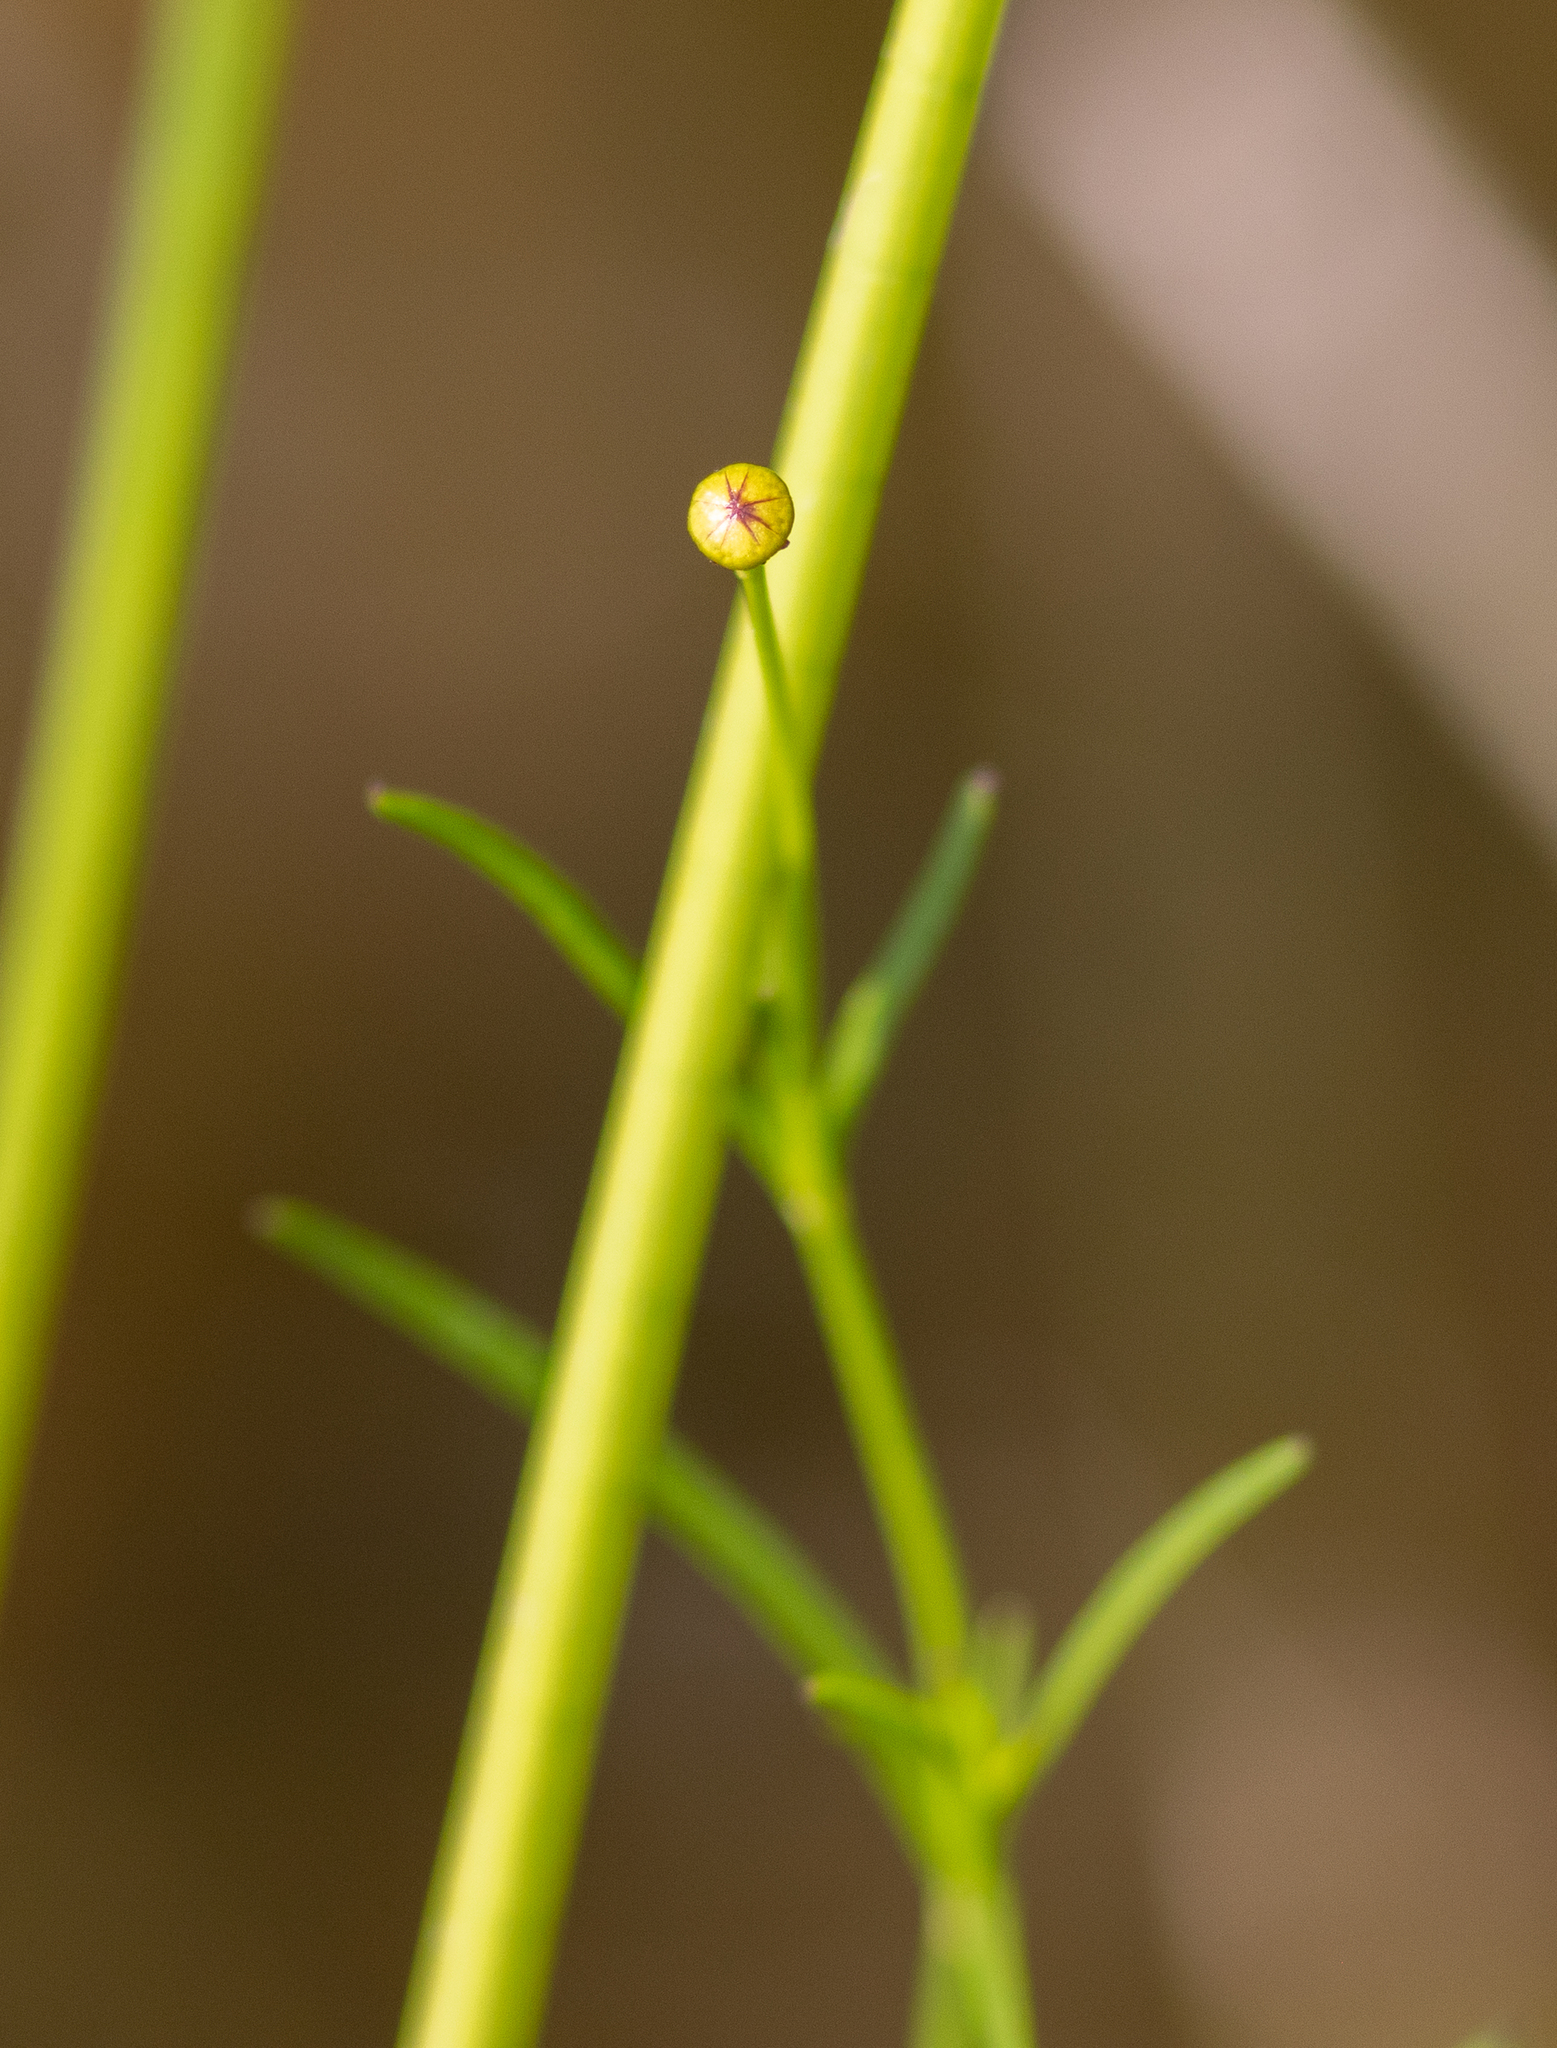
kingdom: Plantae
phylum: Tracheophyta
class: Magnoliopsida
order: Asterales
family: Asteraceae
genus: Coreopsis
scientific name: Coreopsis rosea
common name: Pink coreopsis
